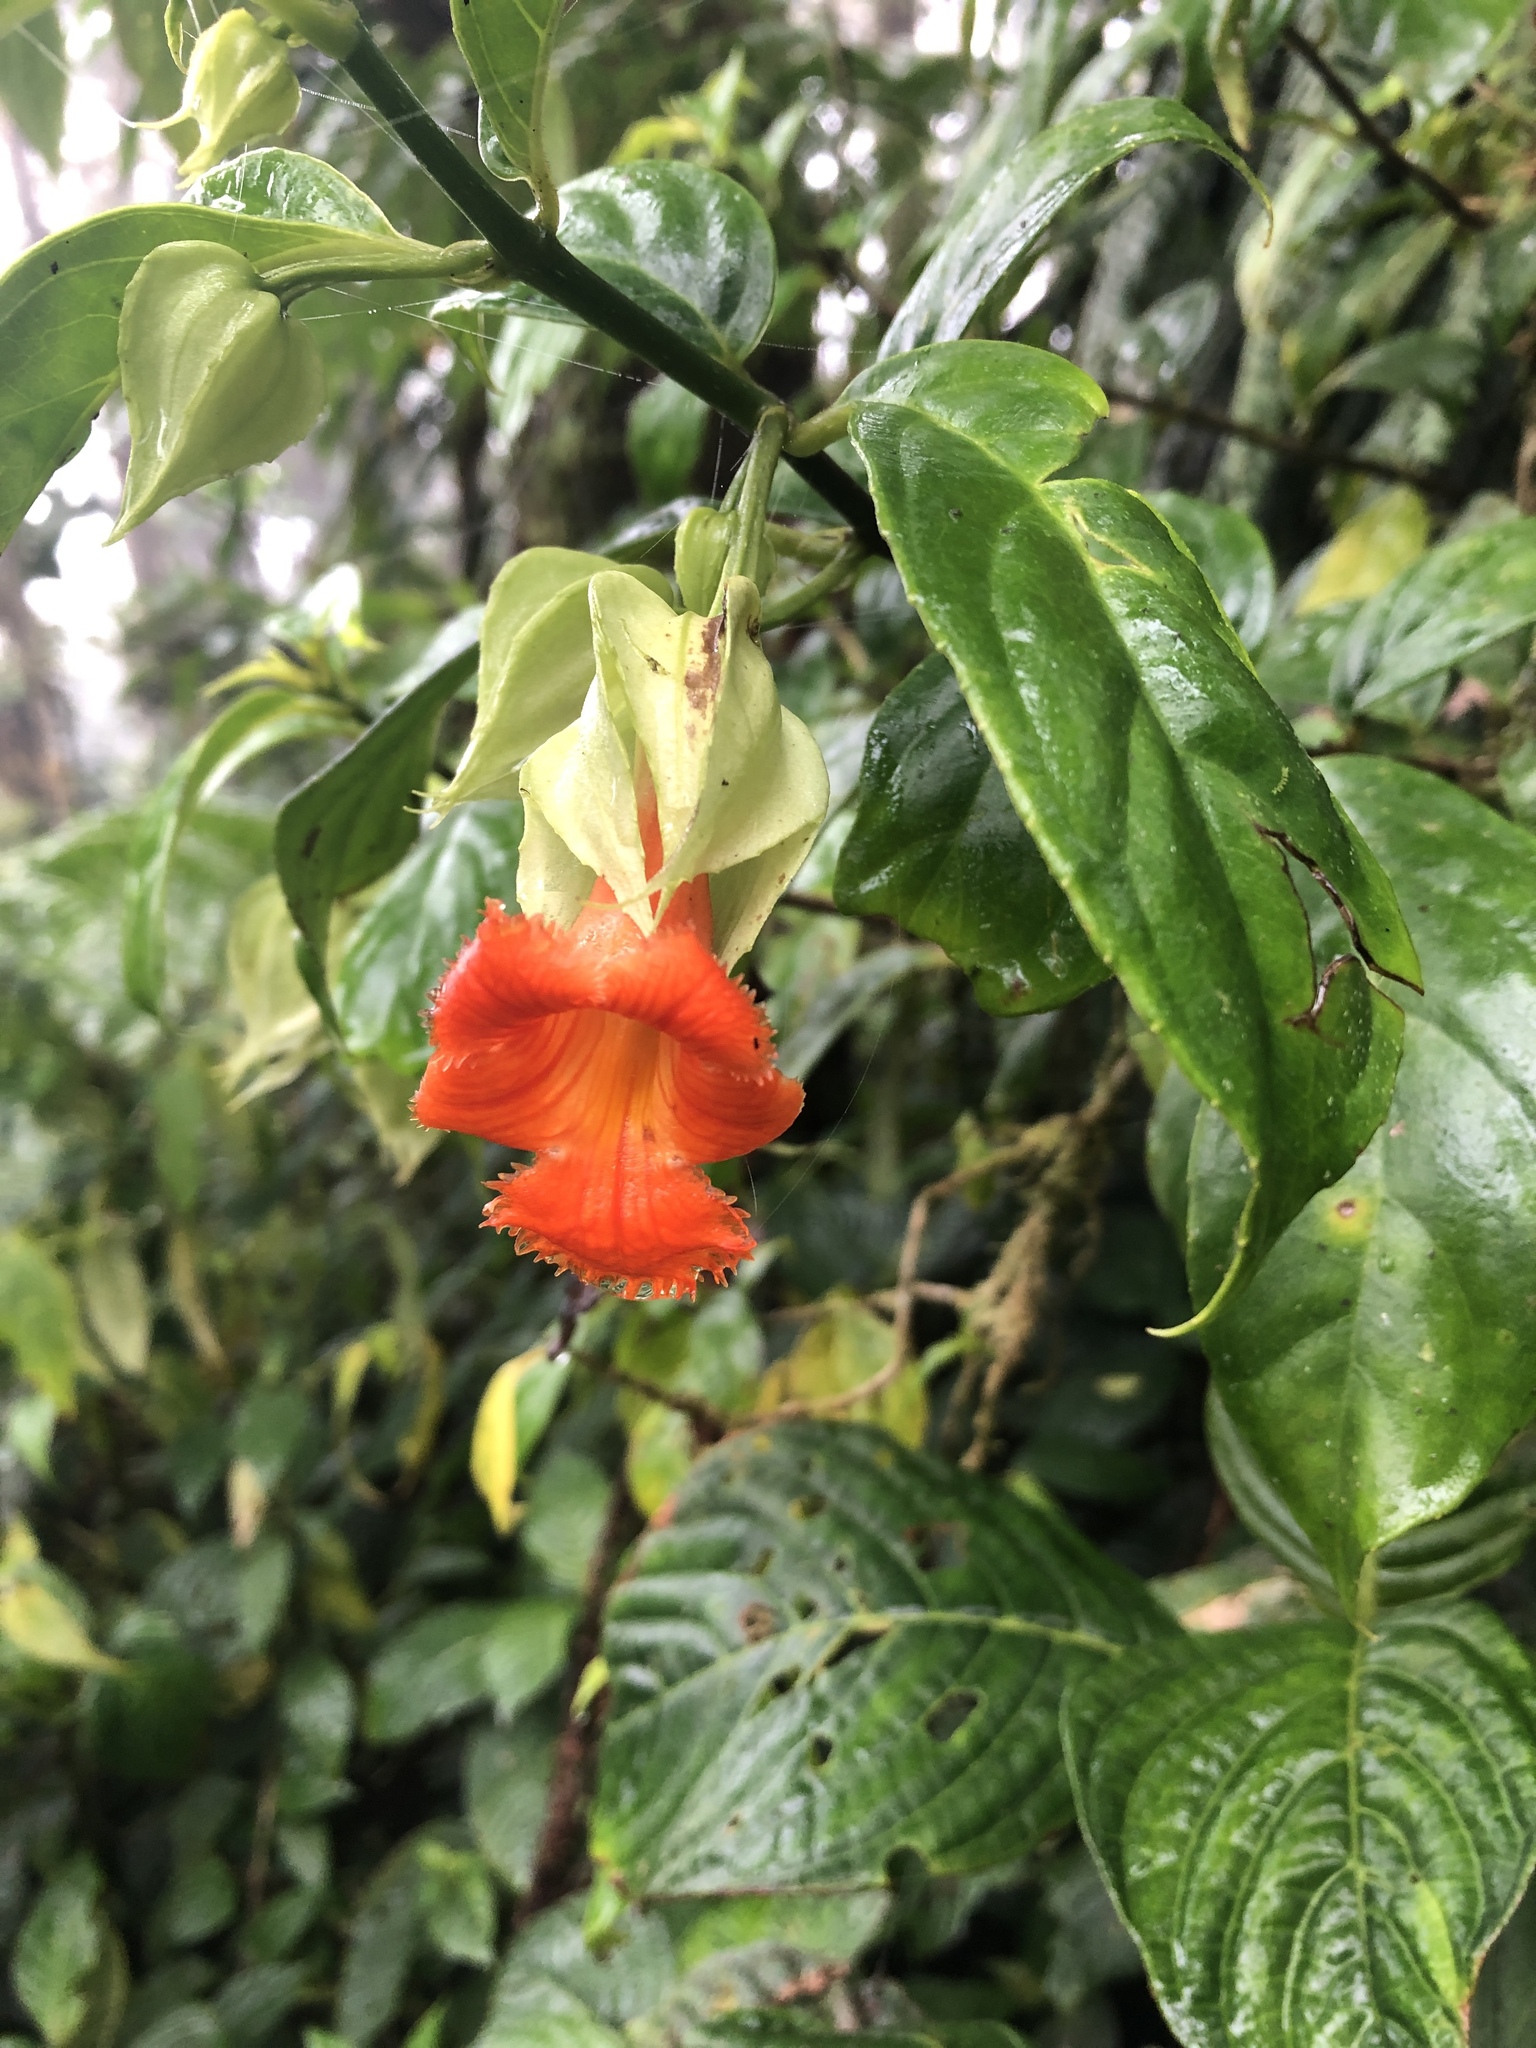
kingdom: Plantae
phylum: Tracheophyta
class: Magnoliopsida
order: Lamiales
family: Gesneriaceae
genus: Drymonia
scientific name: Drymonia rubra
